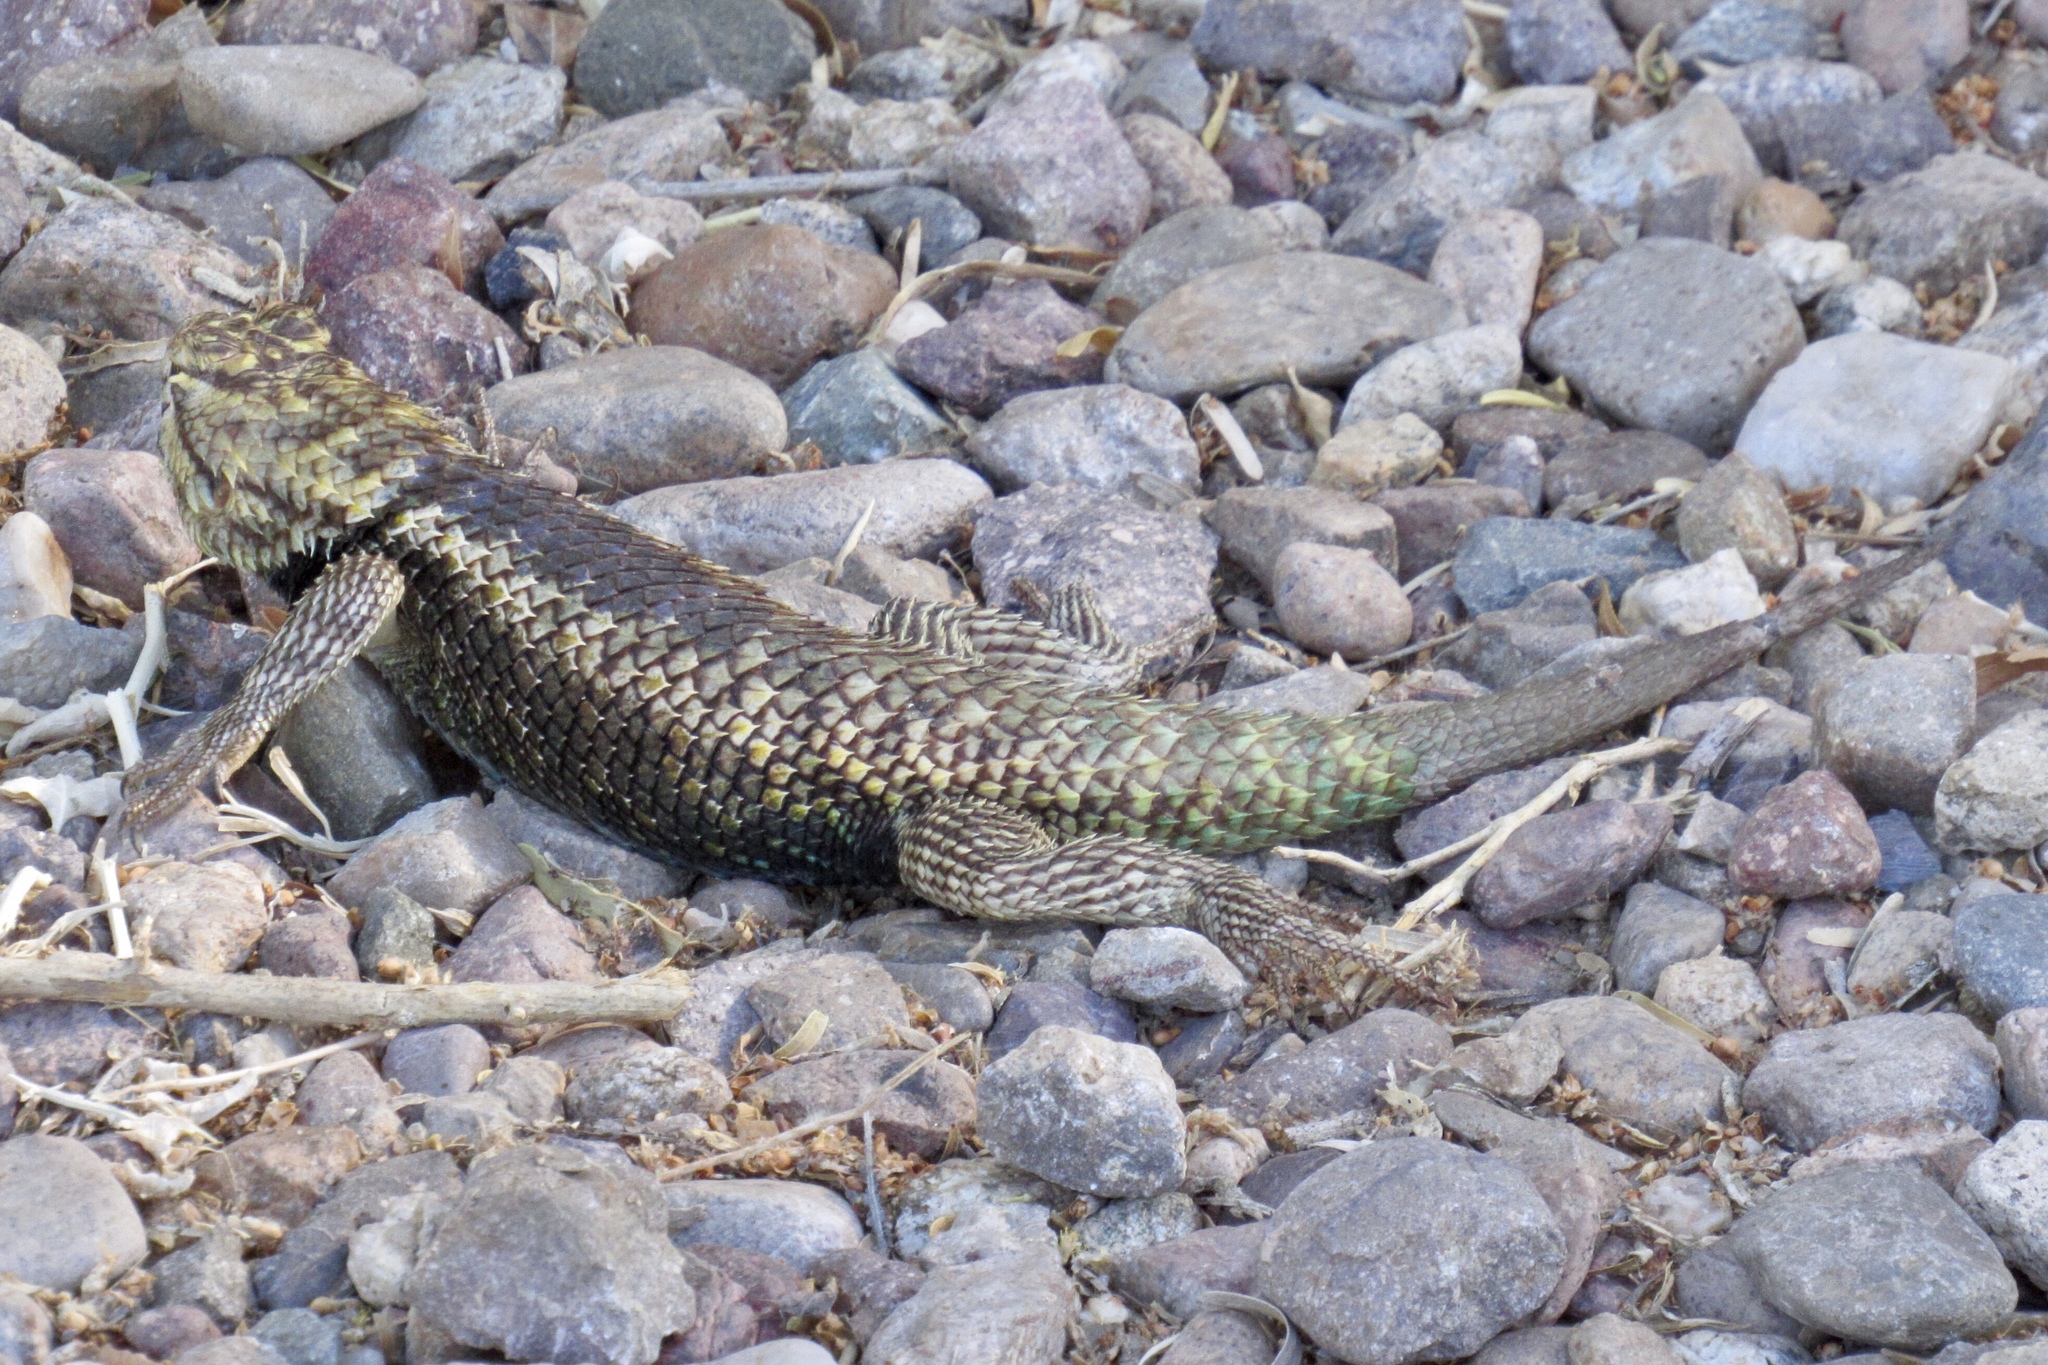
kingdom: Animalia
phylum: Chordata
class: Squamata
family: Phrynosomatidae
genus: Sceloporus
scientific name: Sceloporus magister
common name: Desert spiny lizard
